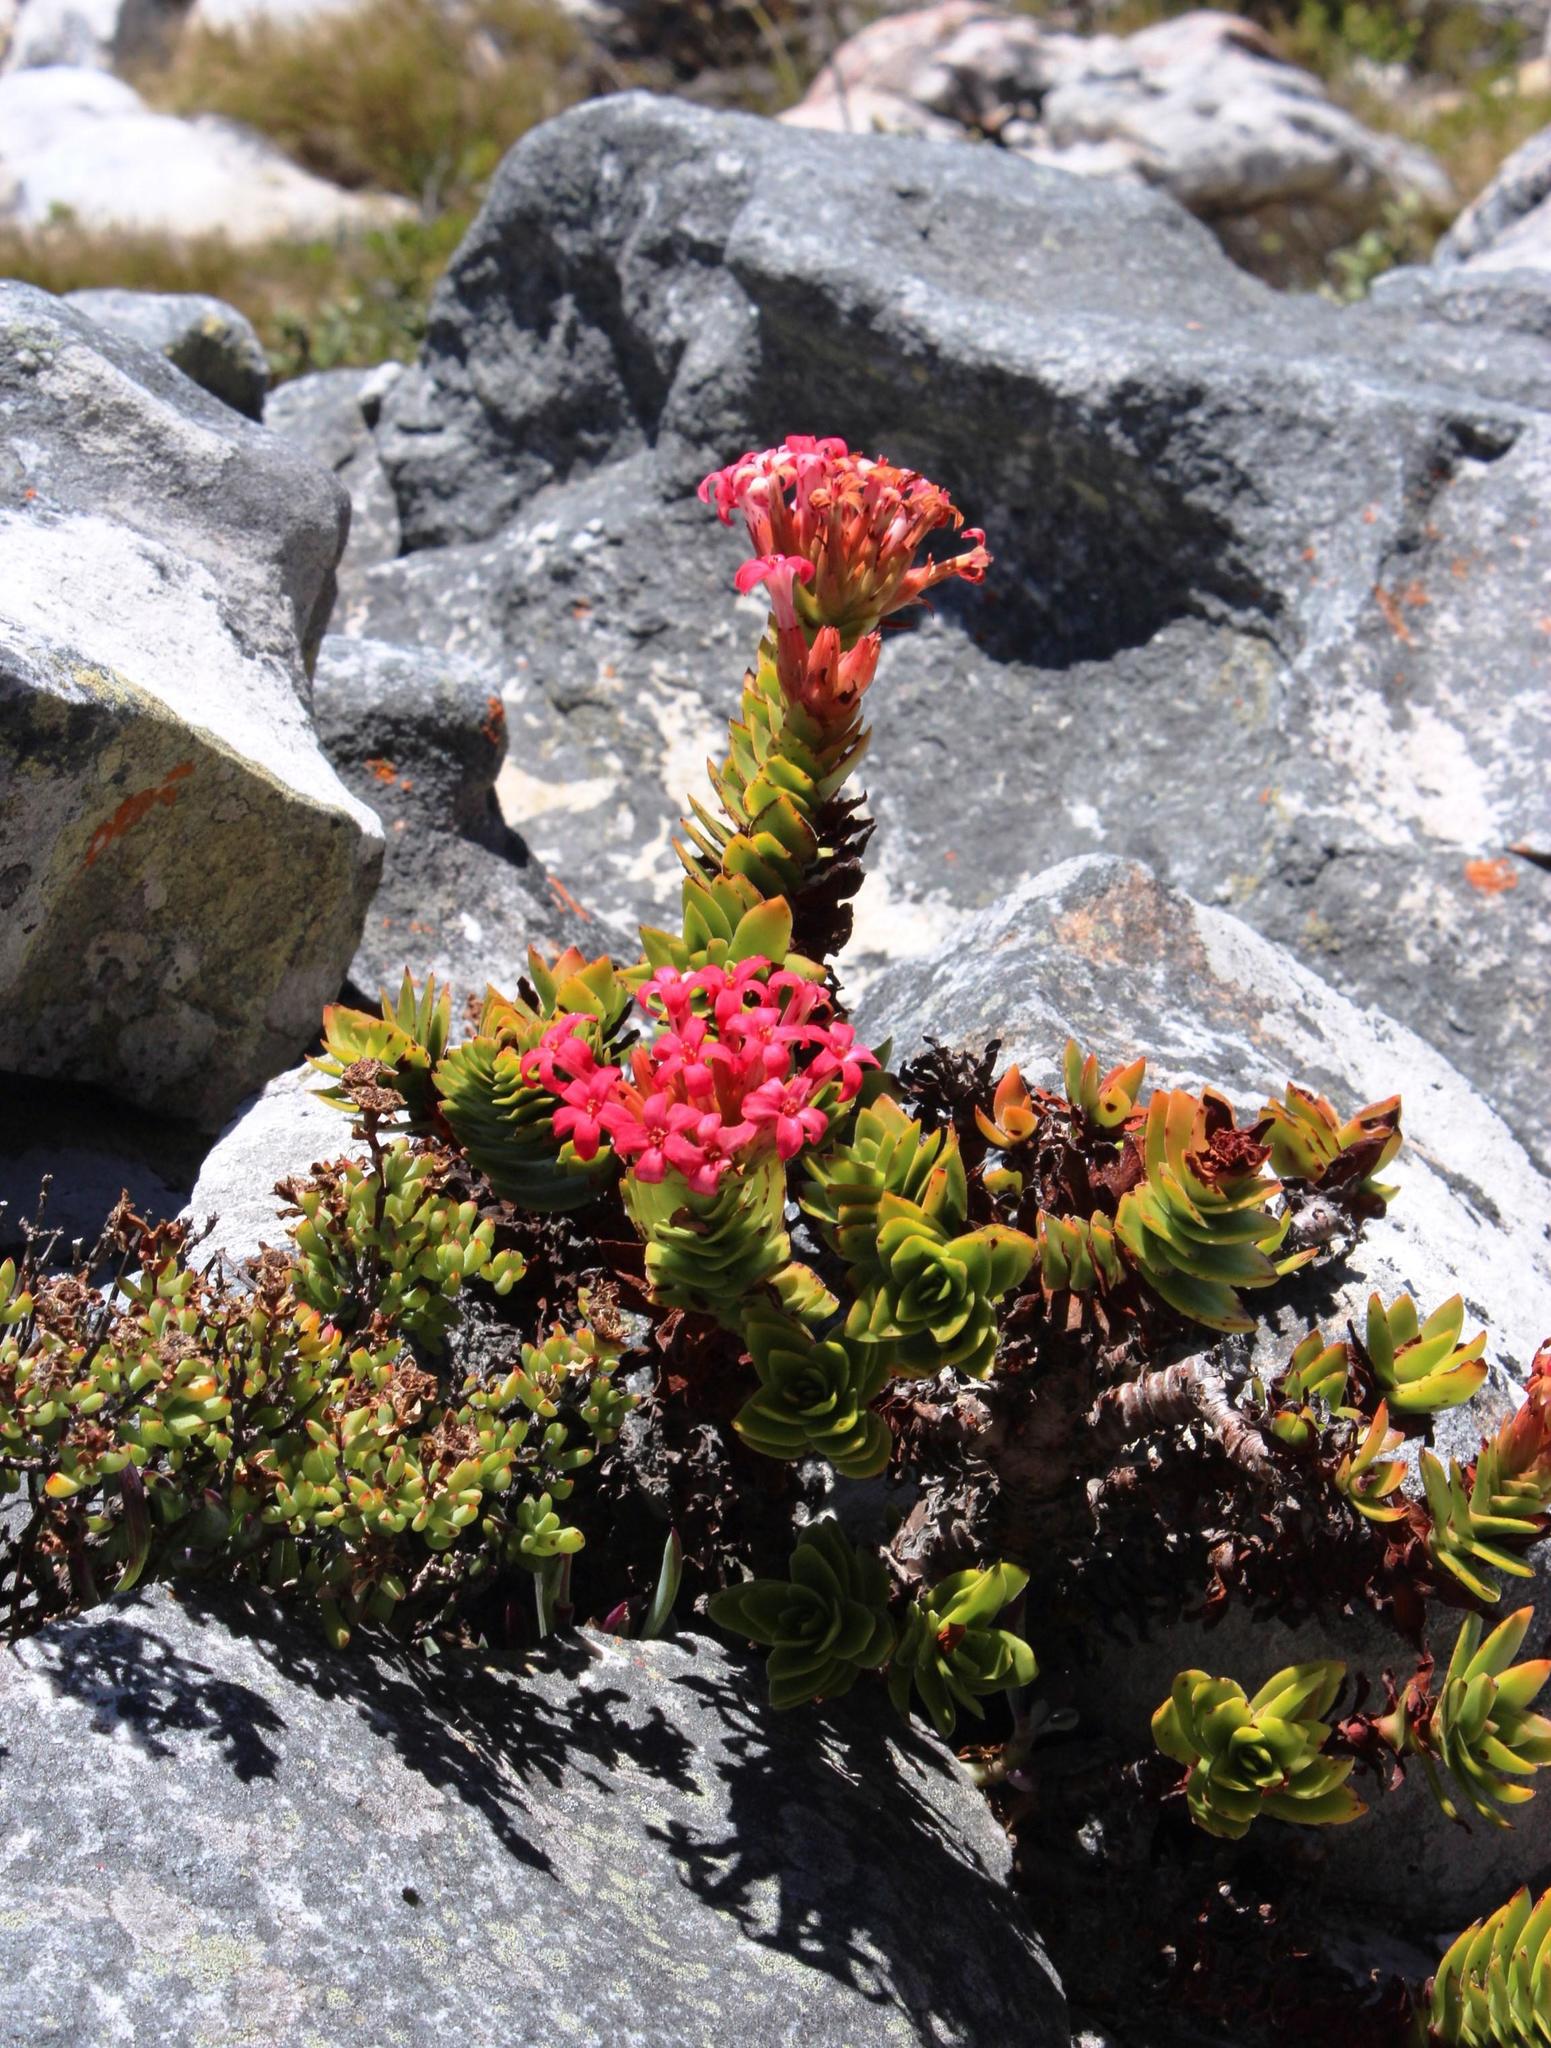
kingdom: Plantae
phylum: Tracheophyta
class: Magnoliopsida
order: Saxifragales
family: Crassulaceae
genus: Crassula
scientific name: Crassula coccinea
